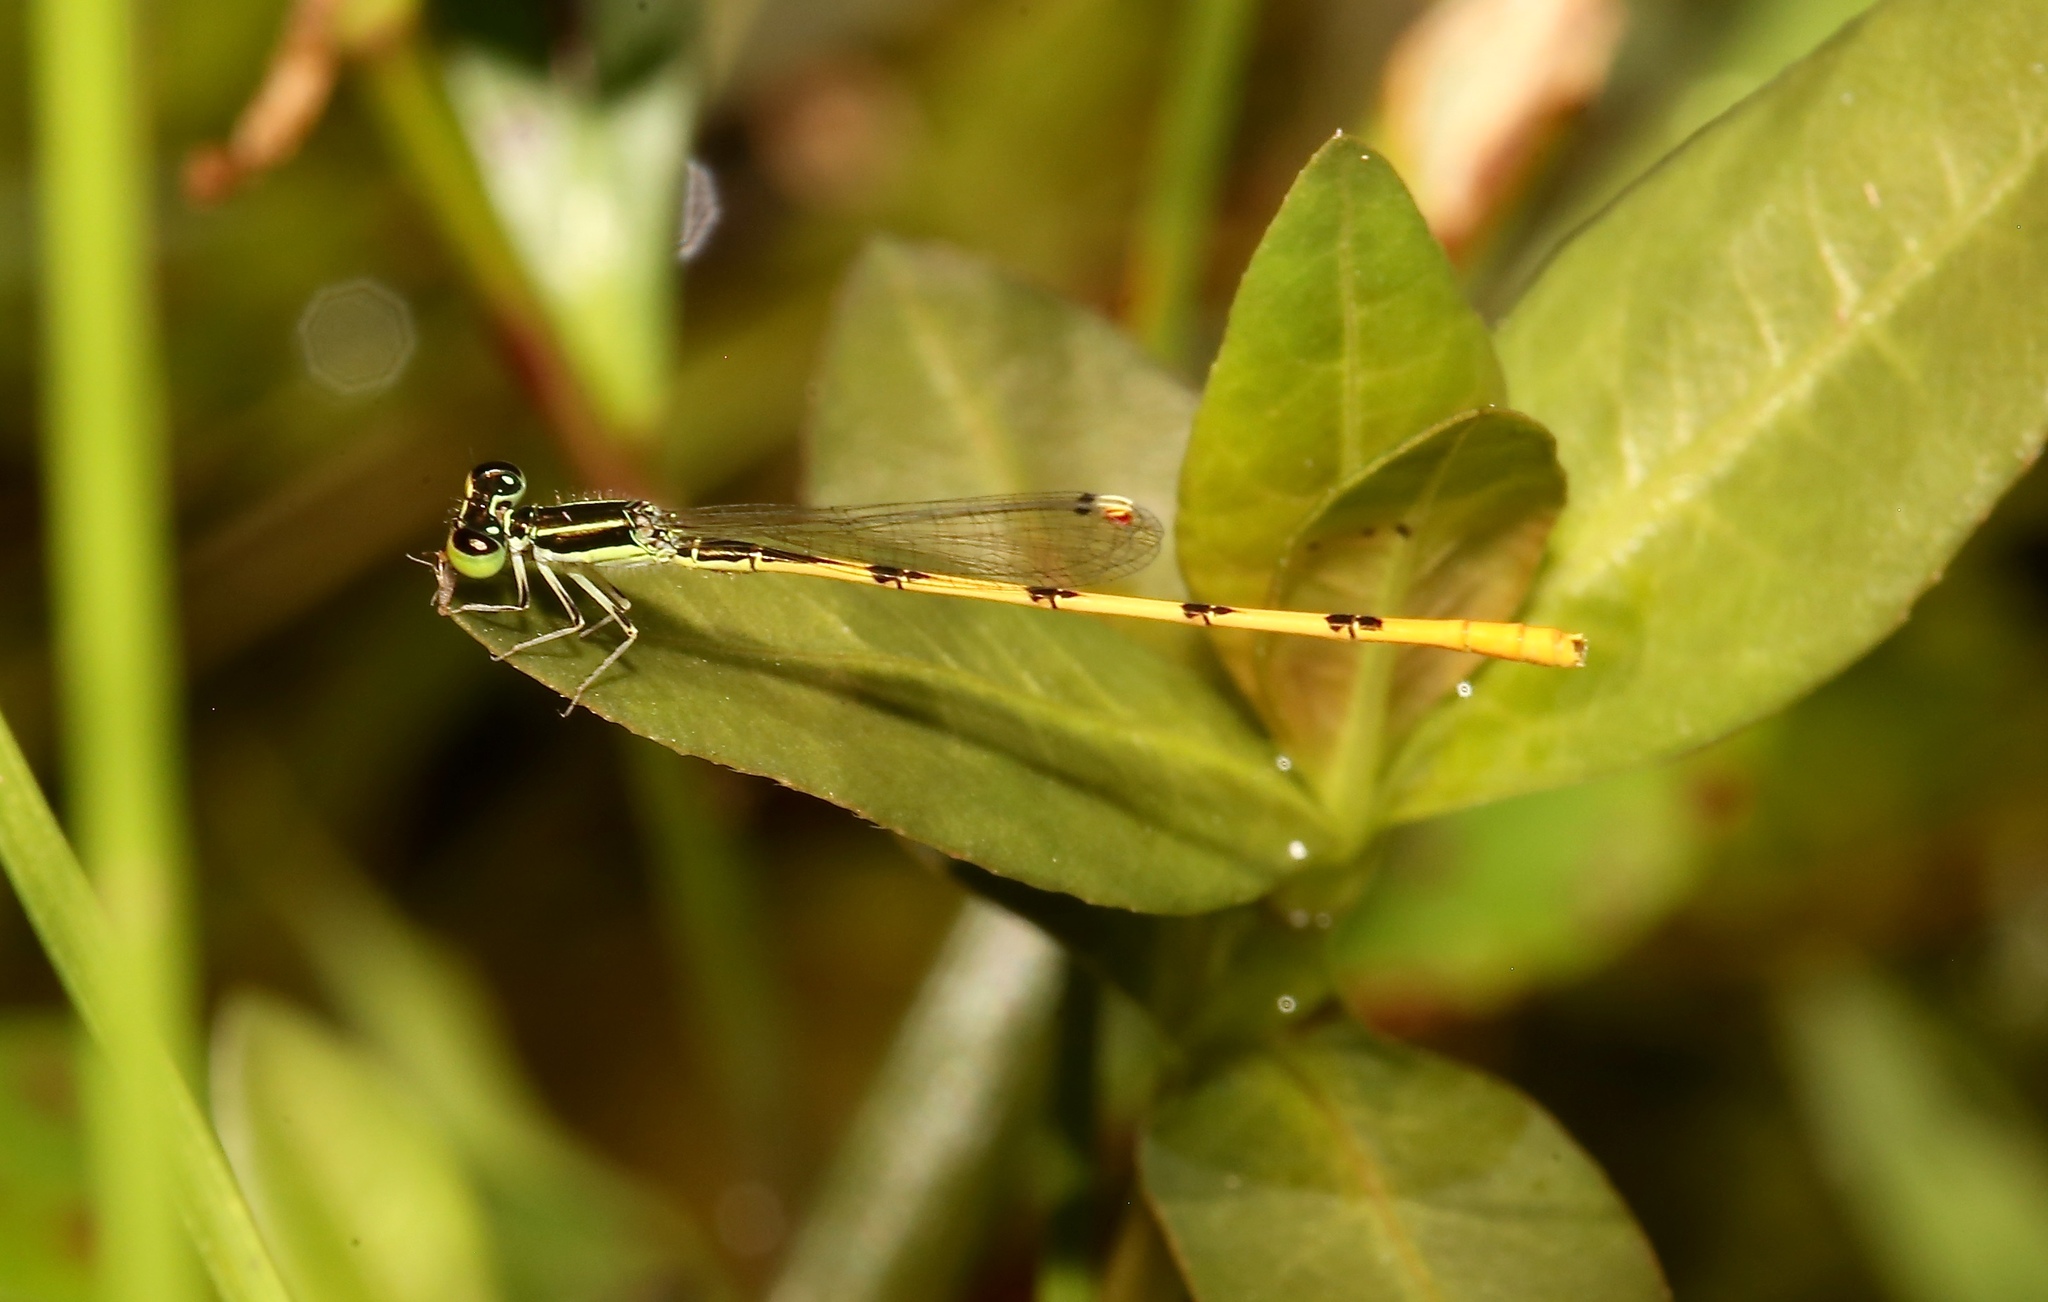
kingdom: Animalia
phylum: Arthropoda
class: Insecta
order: Odonata
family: Coenagrionidae
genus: Ischnura
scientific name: Ischnura hastata
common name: Citrine forktail
